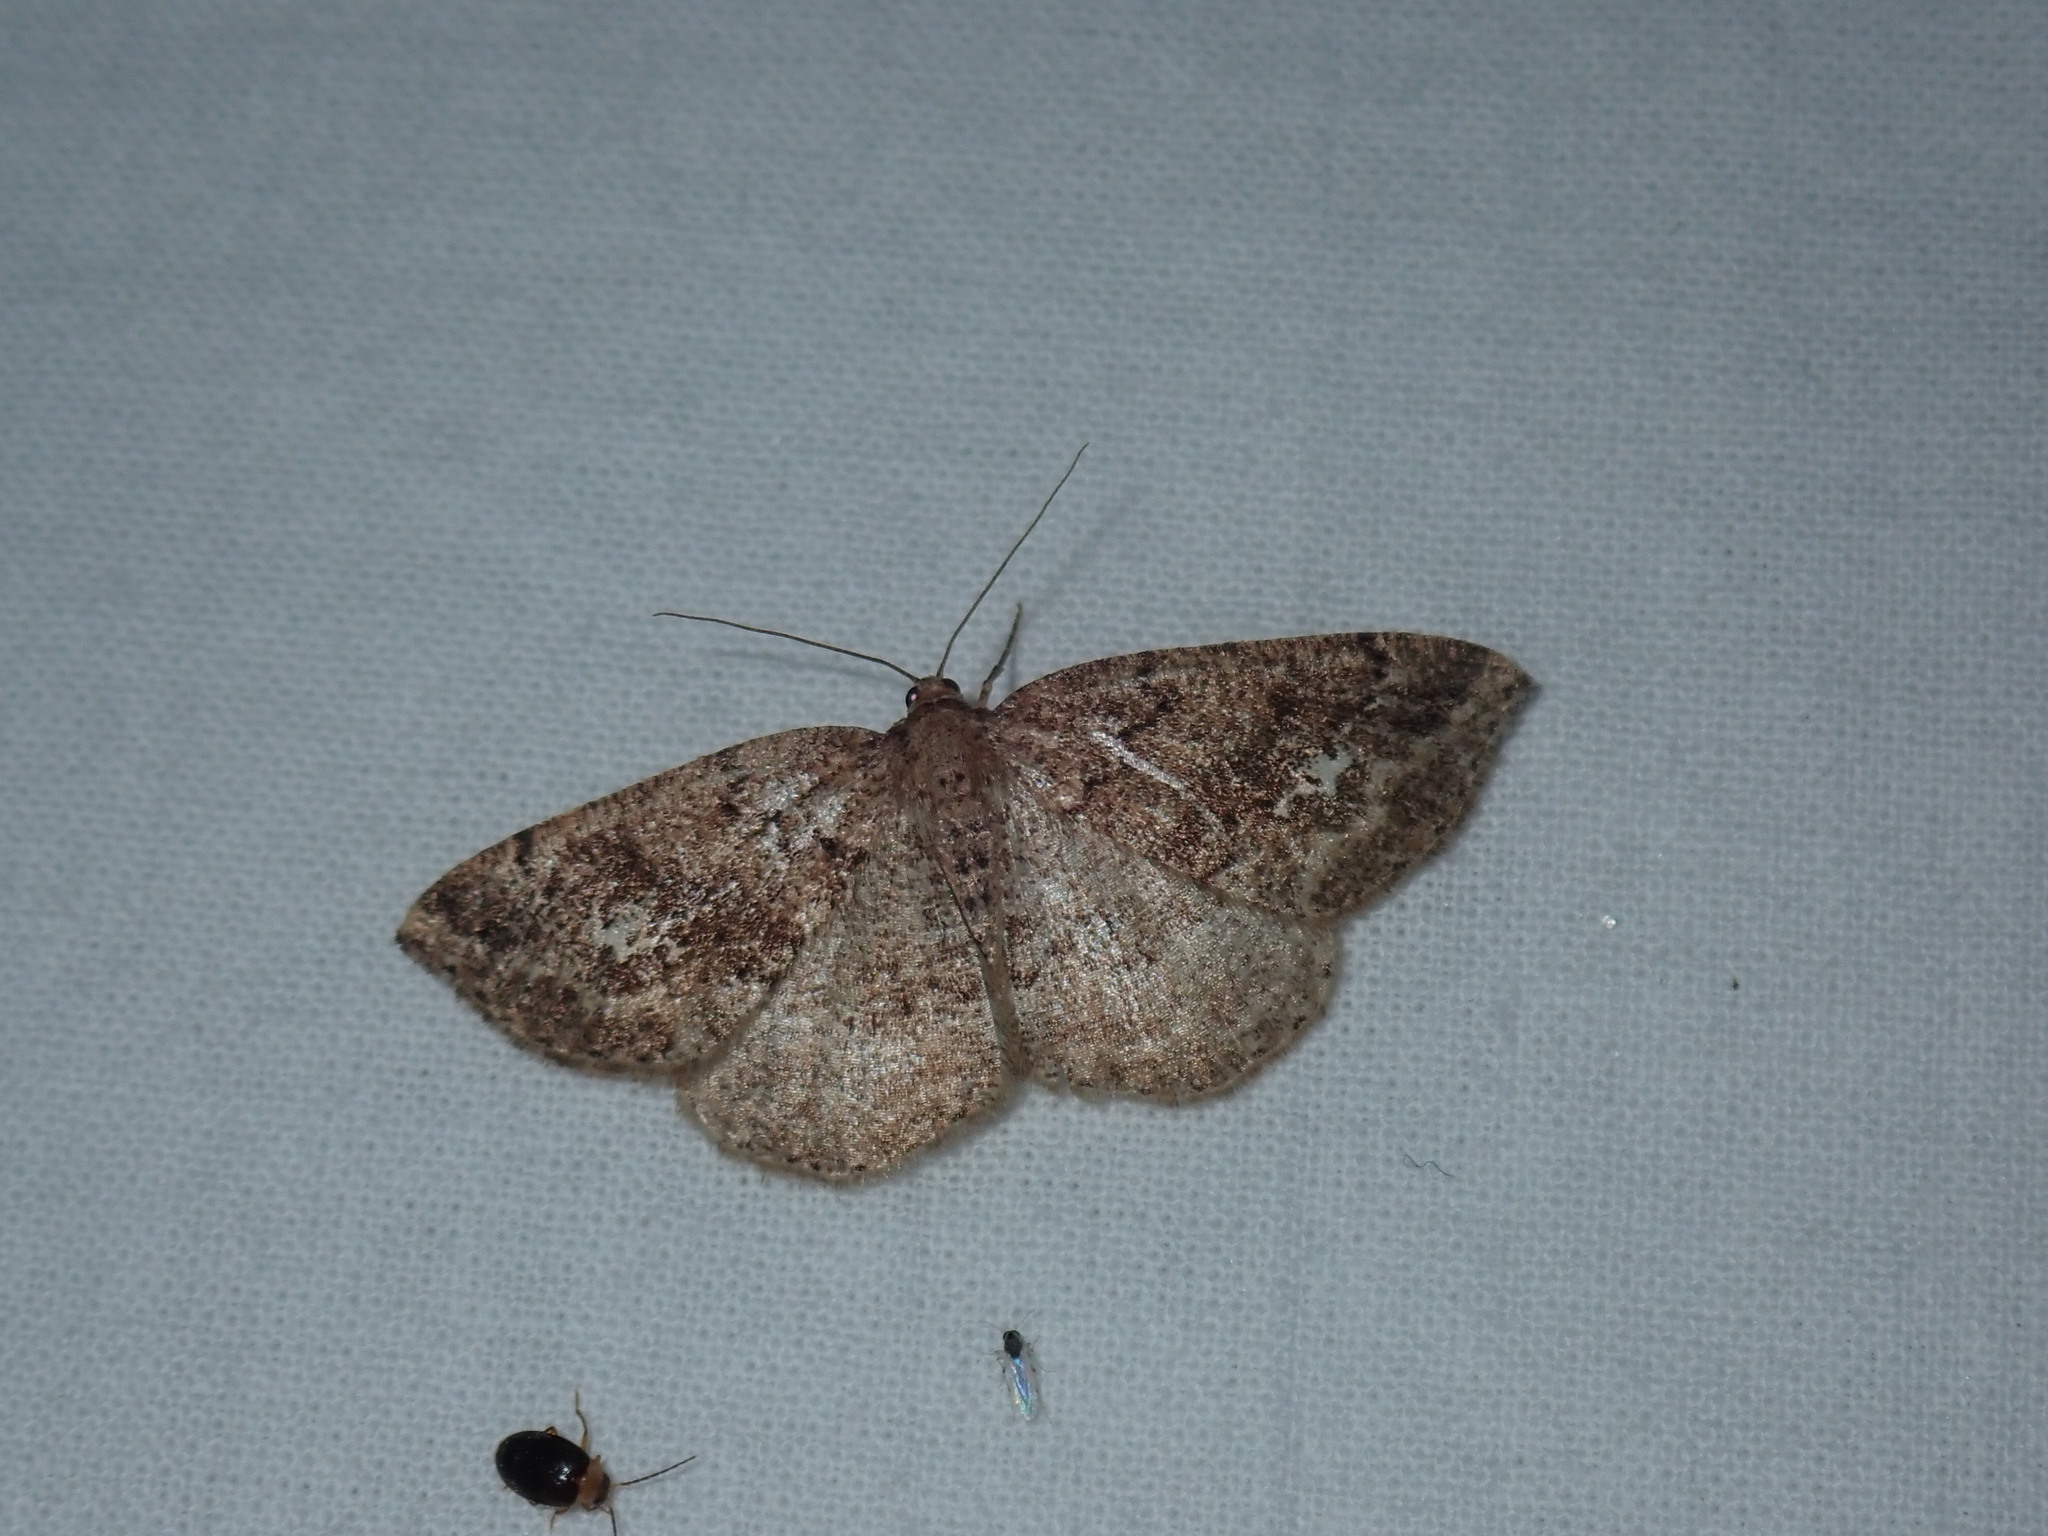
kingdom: Animalia
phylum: Arthropoda
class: Insecta
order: Lepidoptera
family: Geometridae
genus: Homochlodes
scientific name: Homochlodes fritillaria
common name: Pale homochlodes
